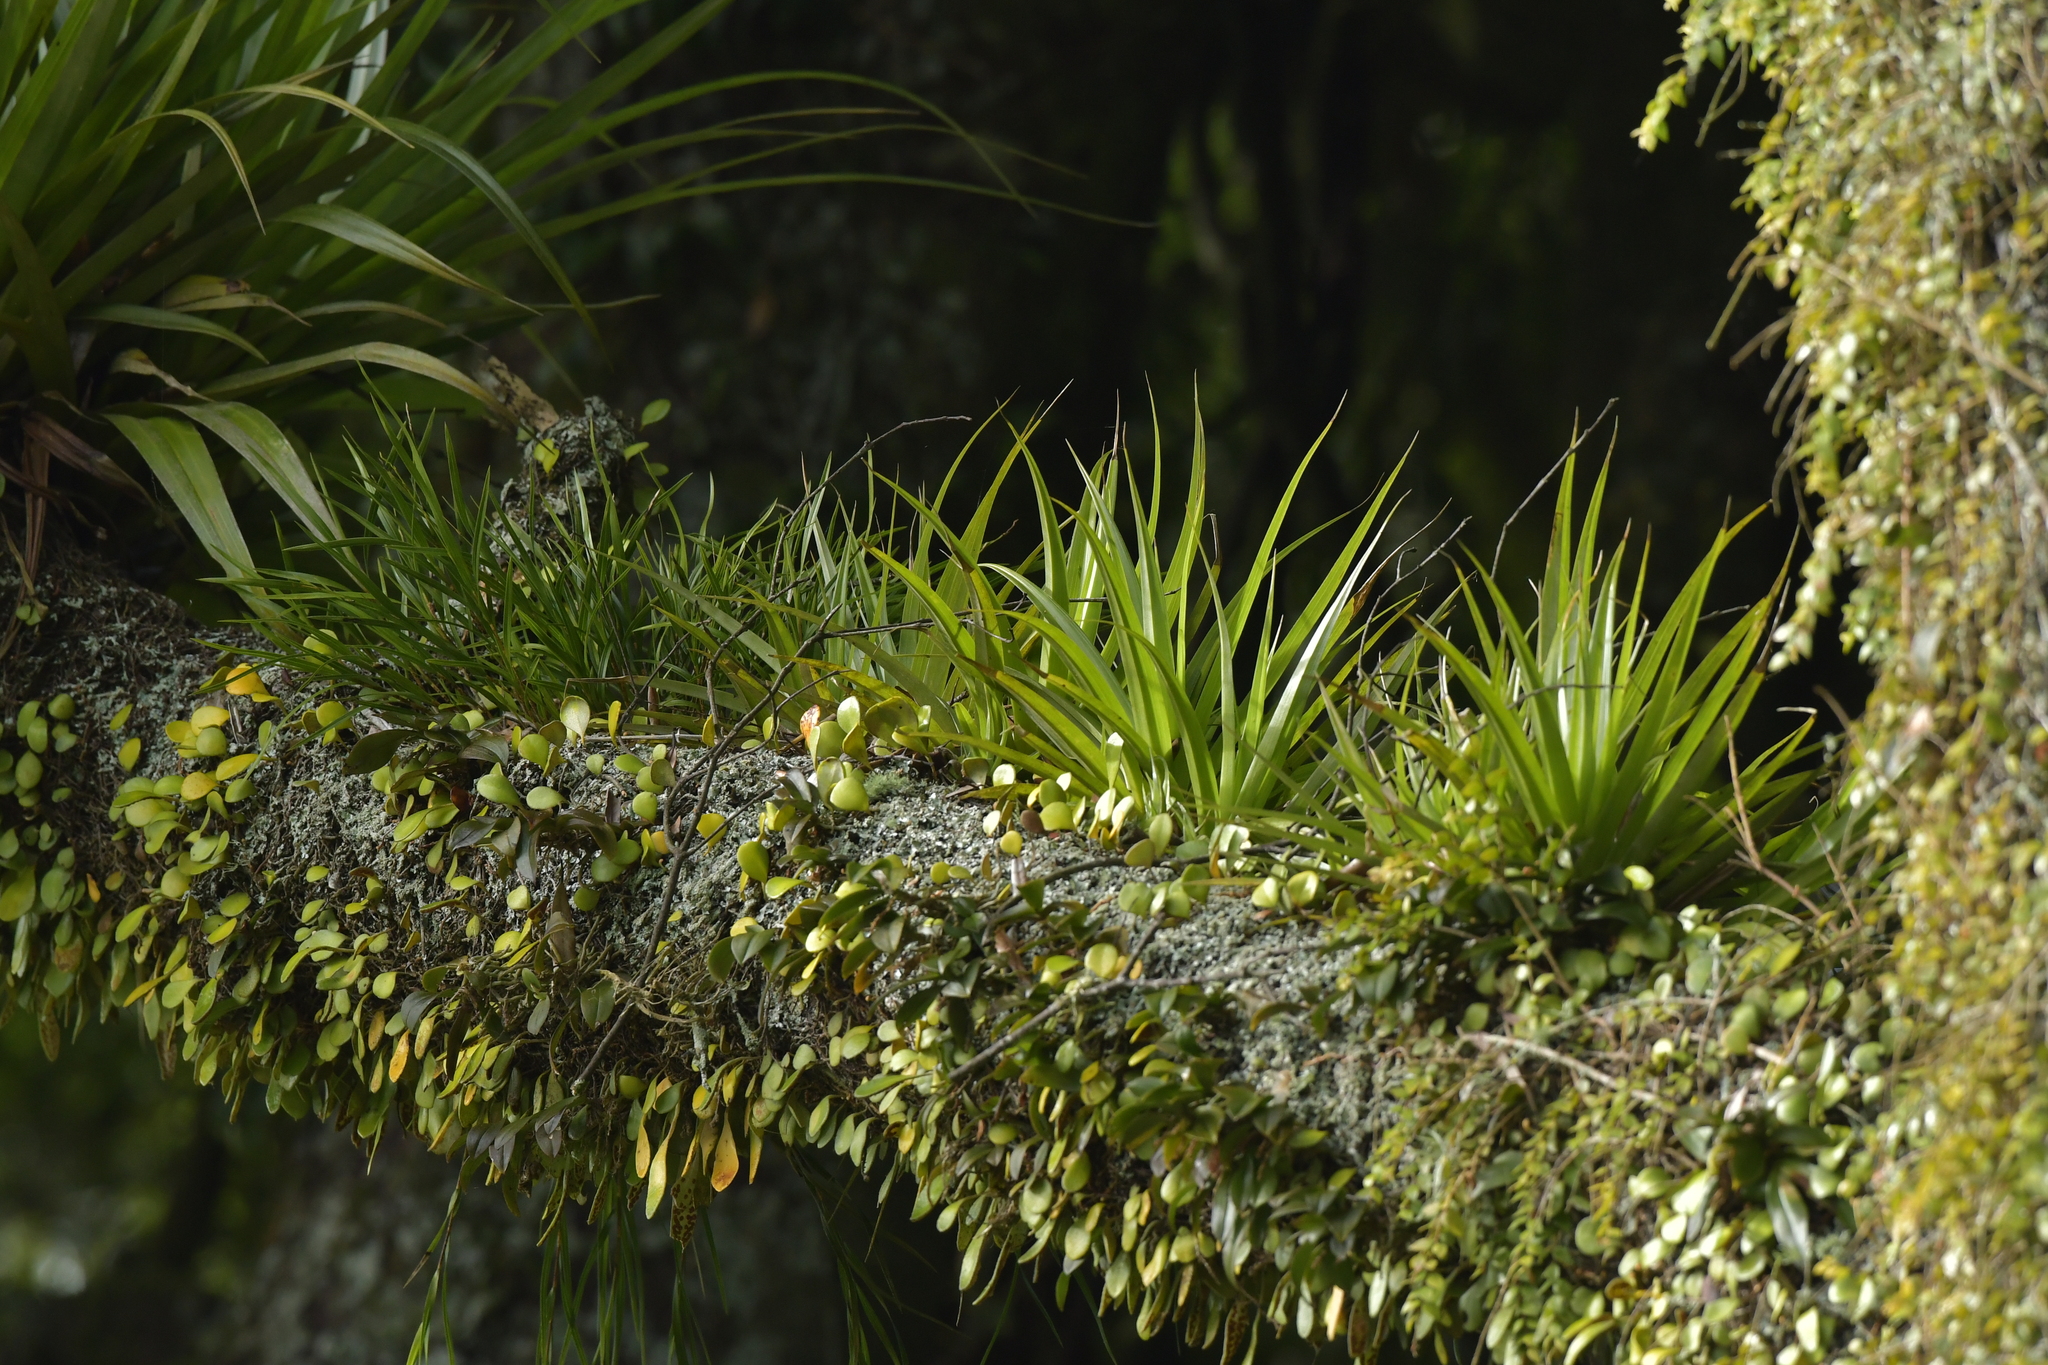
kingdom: Plantae
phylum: Tracheophyta
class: Liliopsida
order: Asparagales
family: Asteliaceae
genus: Astelia
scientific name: Astelia hastata
